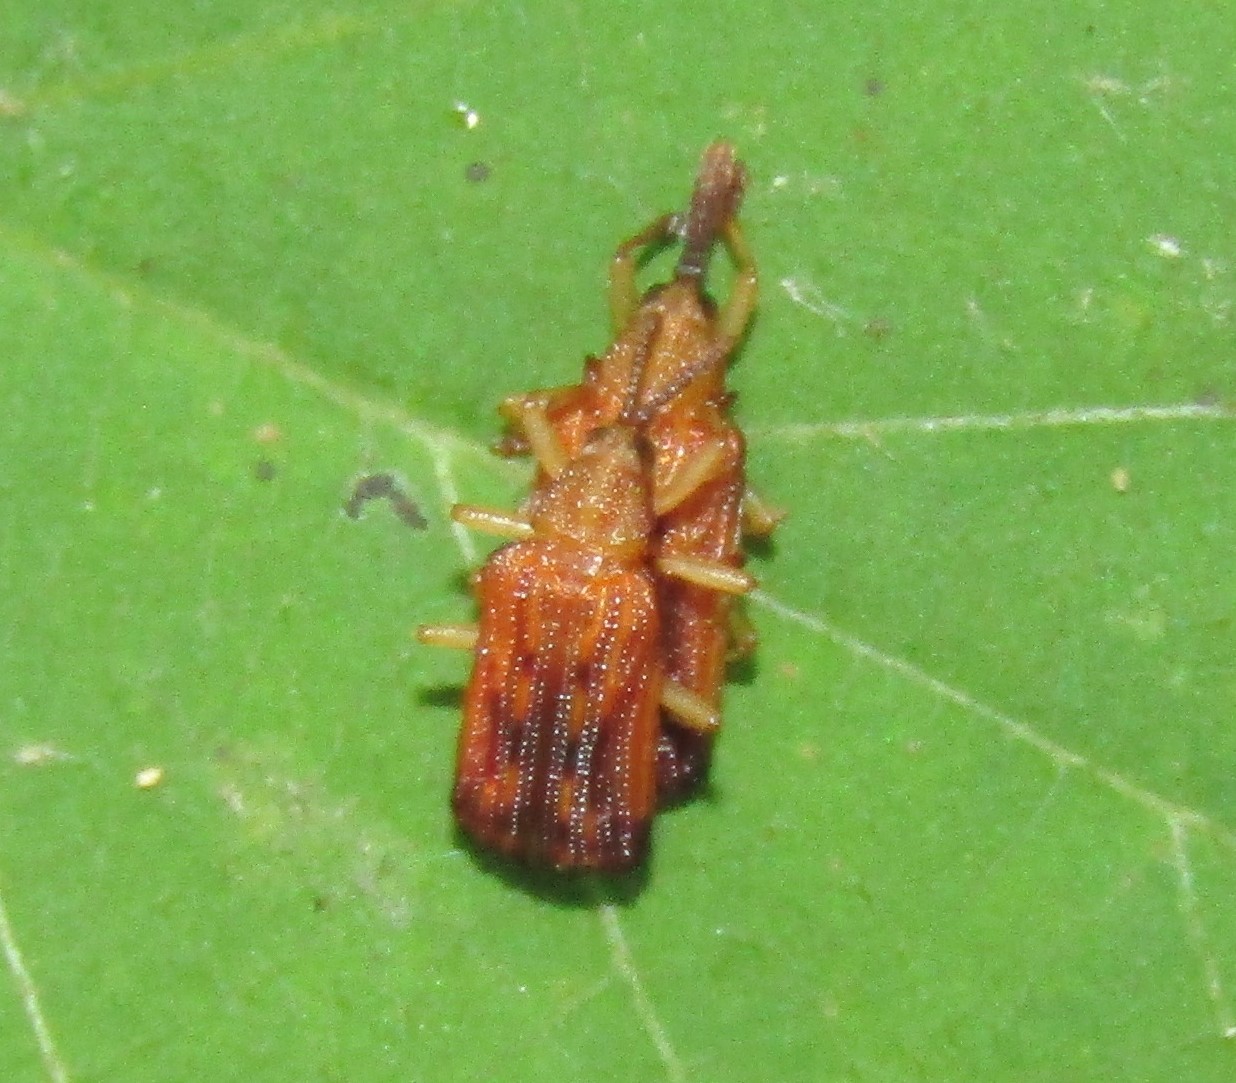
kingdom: Animalia
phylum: Arthropoda
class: Insecta
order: Coleoptera
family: Chrysomelidae
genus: Baliosus
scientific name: Baliosus nervosus
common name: Basswood leaf miner
